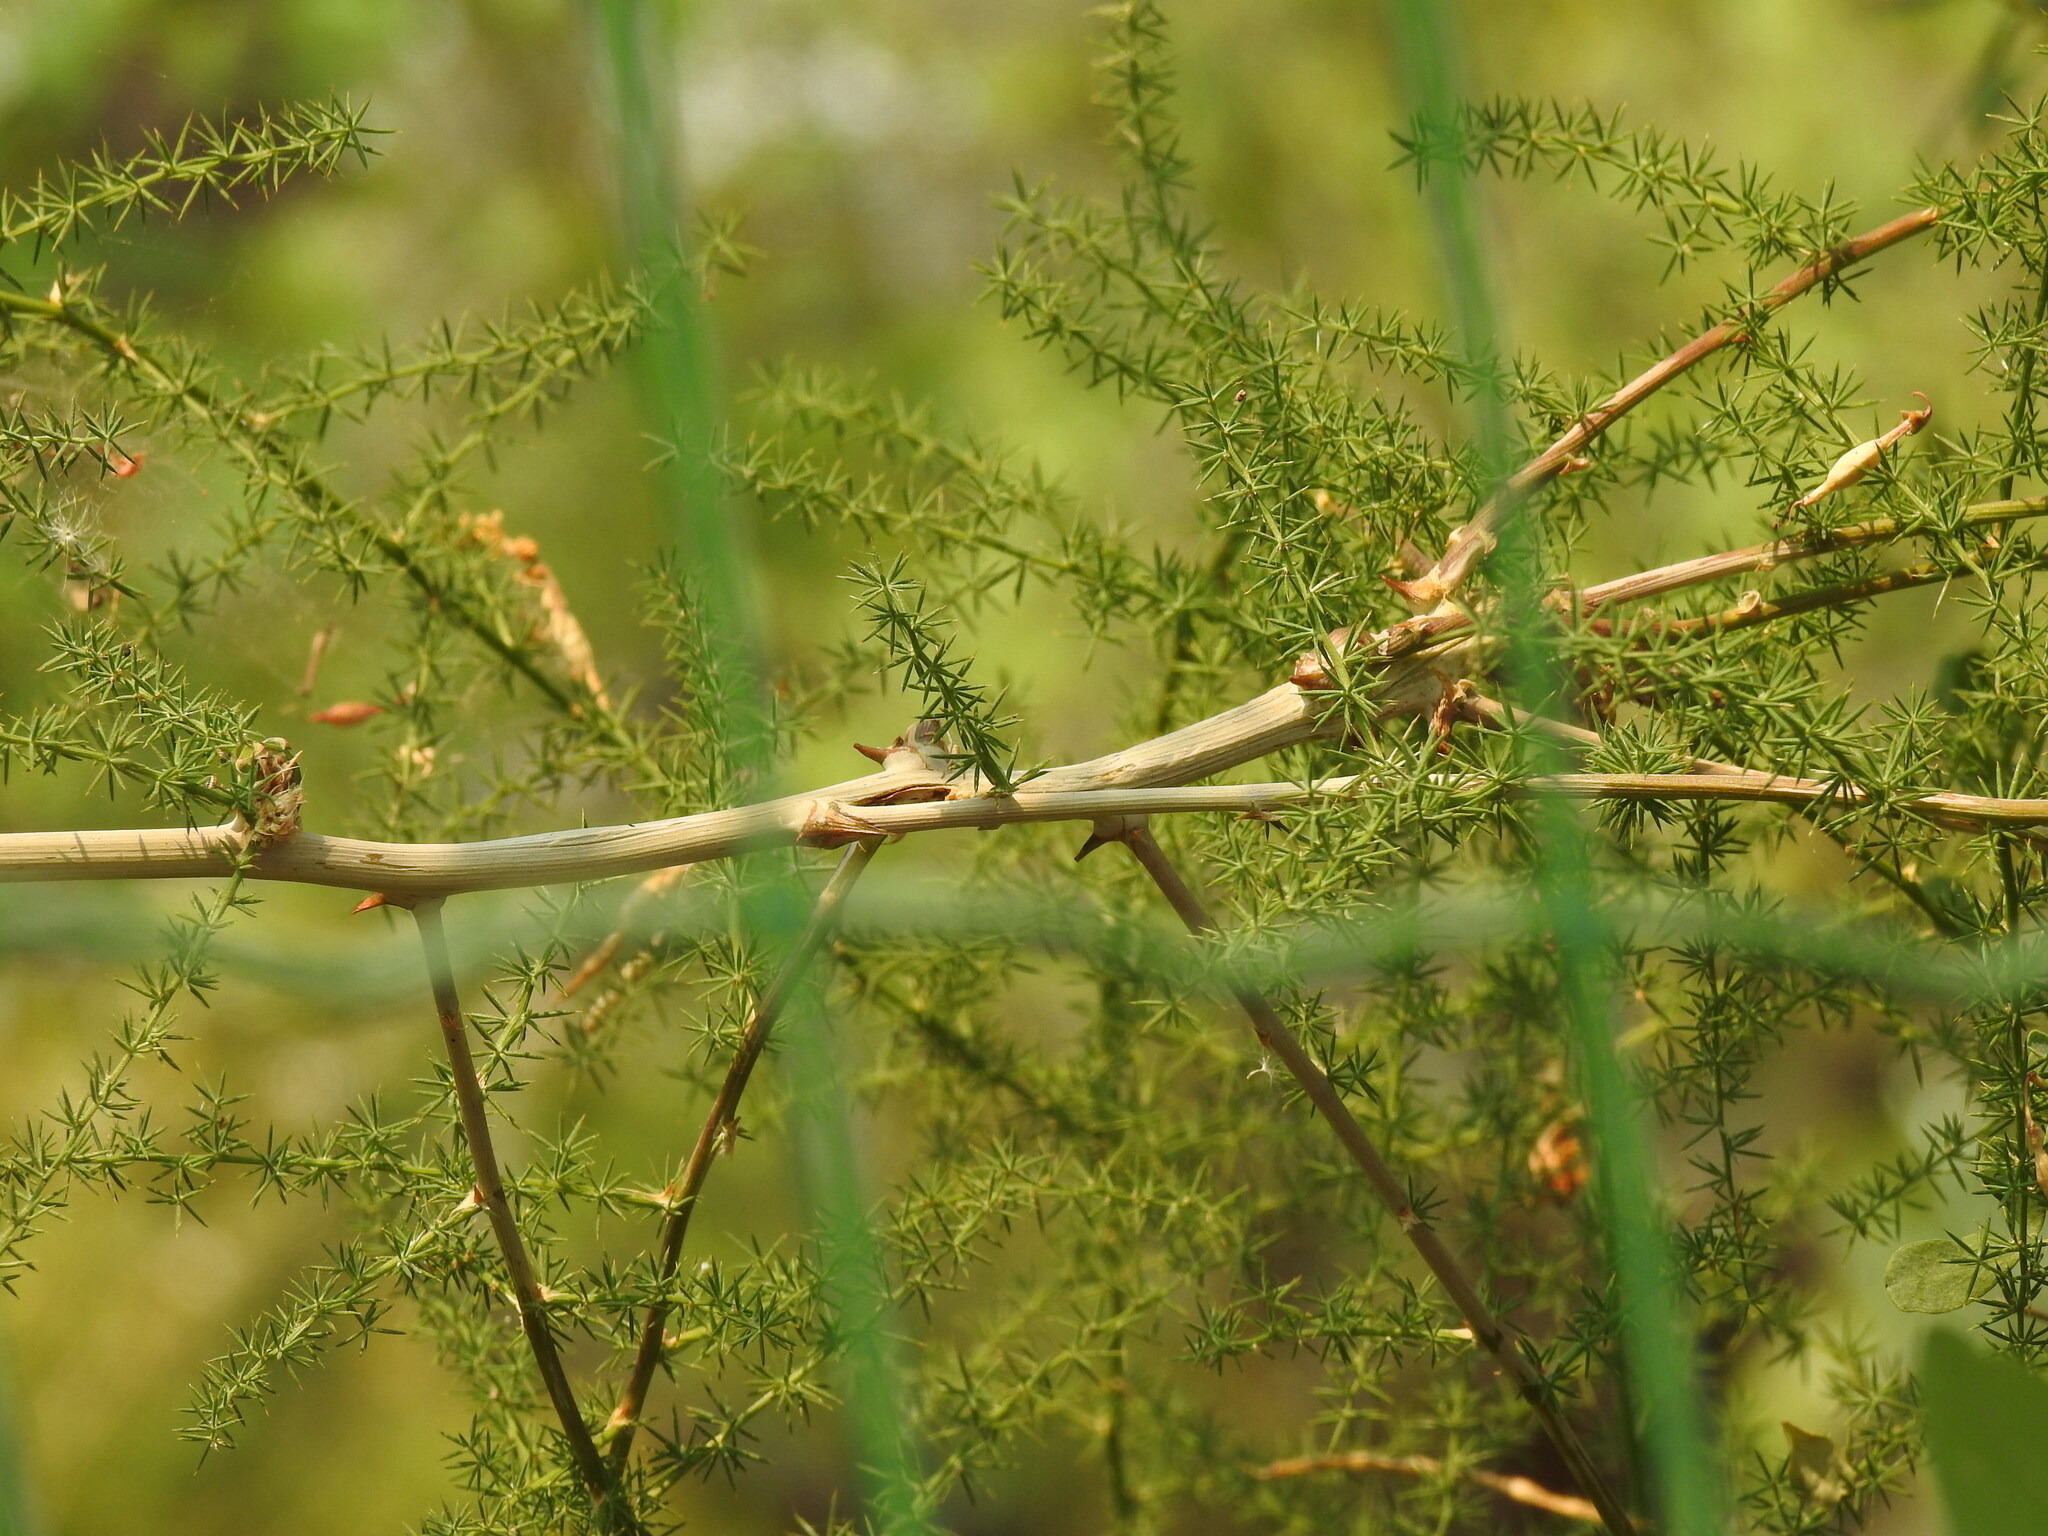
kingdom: Plantae
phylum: Tracheophyta
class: Liliopsida
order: Asparagales
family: Asparagaceae
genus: Asparagus
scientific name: Asparagus acutifolius
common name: Wild asparagus
